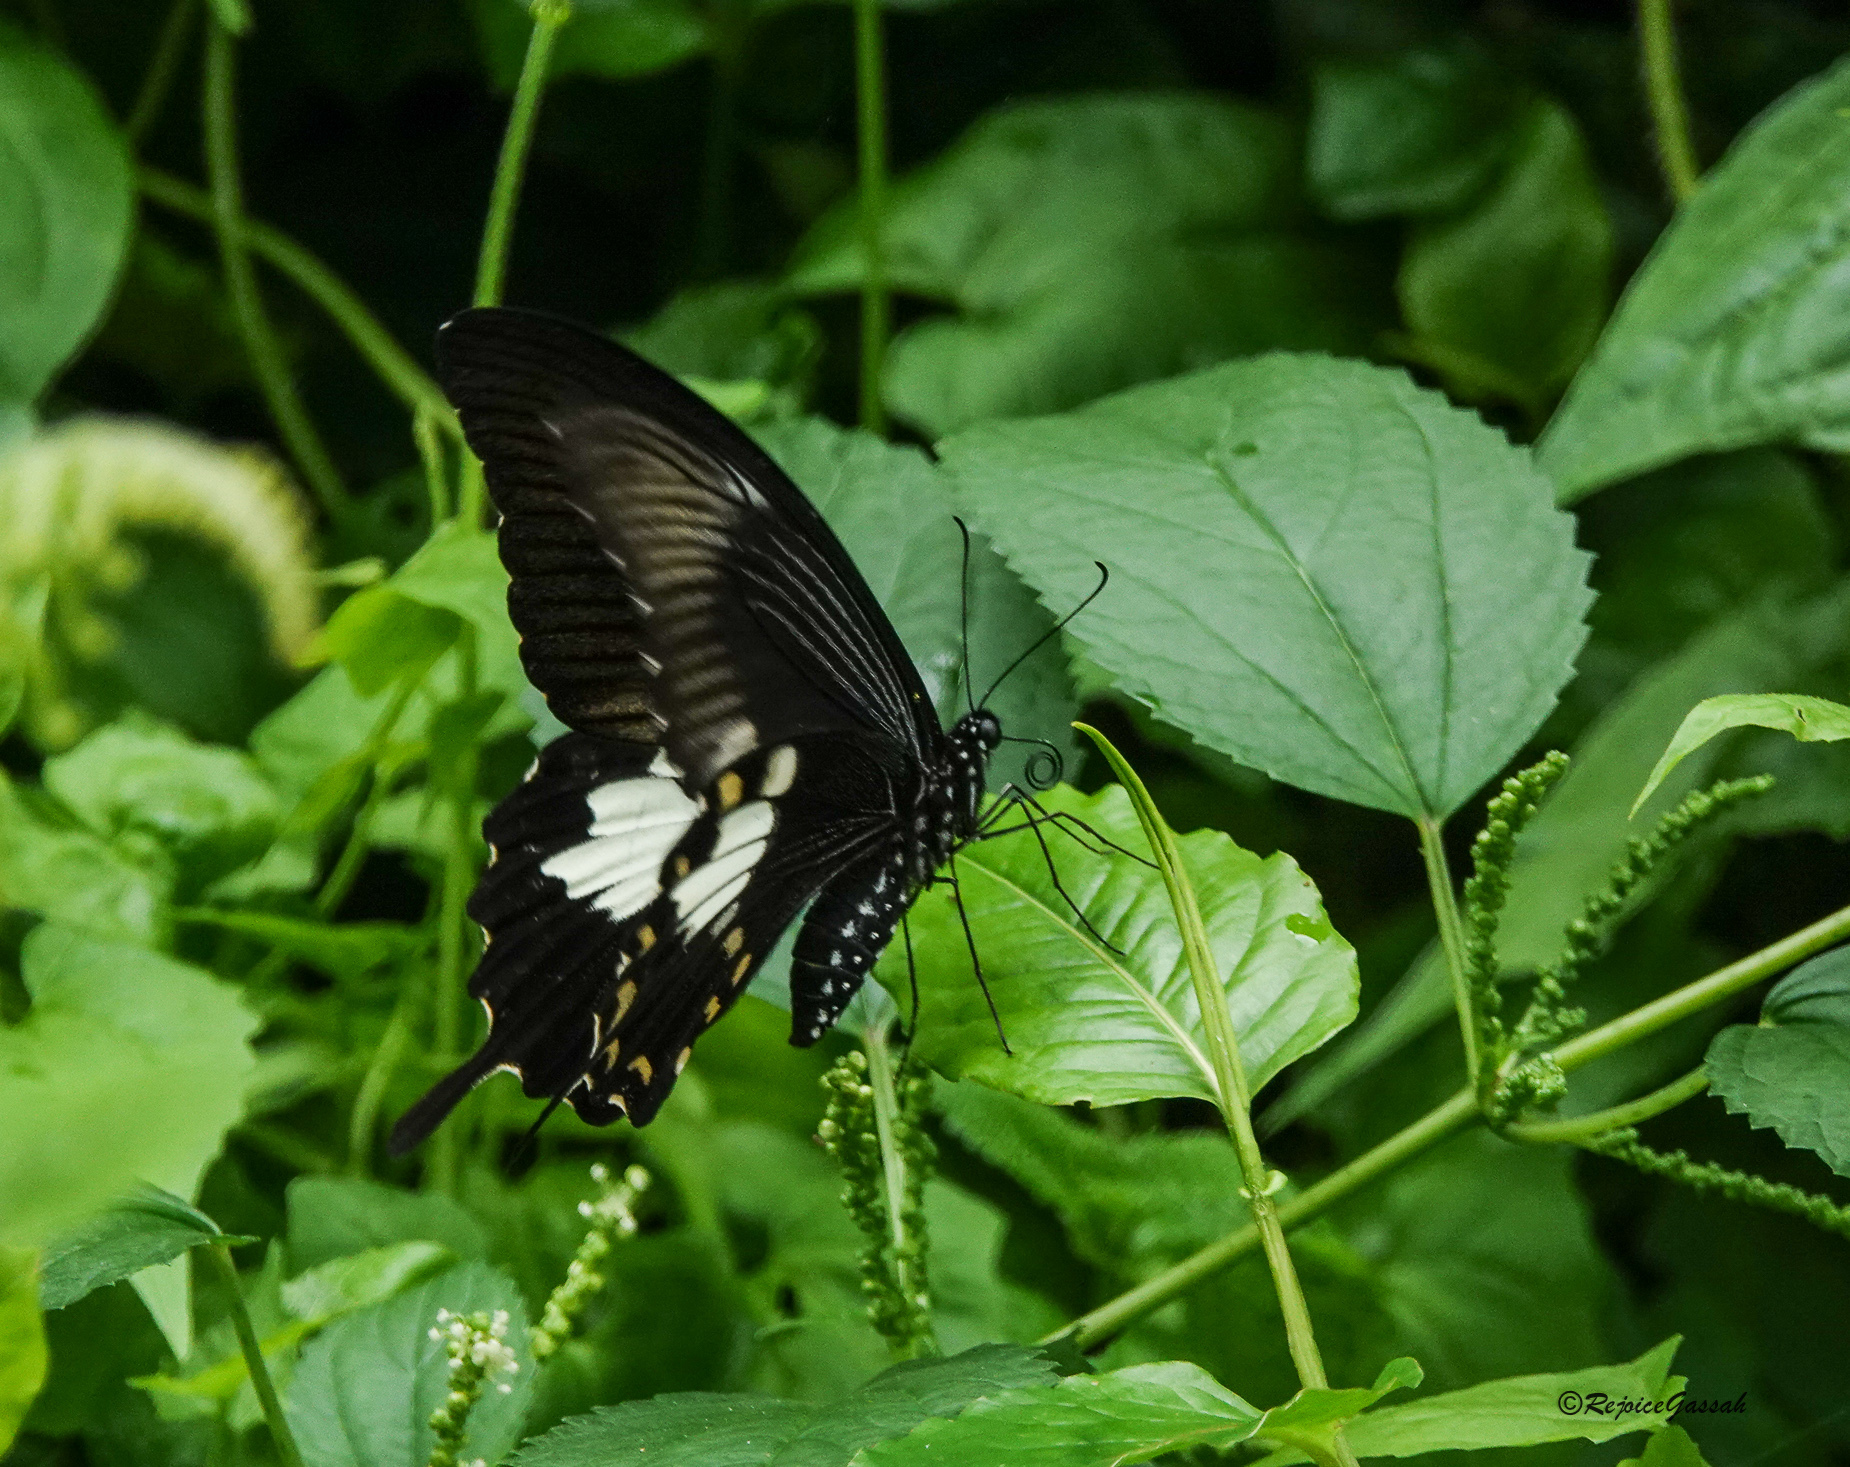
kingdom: Animalia
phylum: Arthropoda
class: Insecta
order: Lepidoptera
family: Papilionidae
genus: Papilio
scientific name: Papilio nephelus
